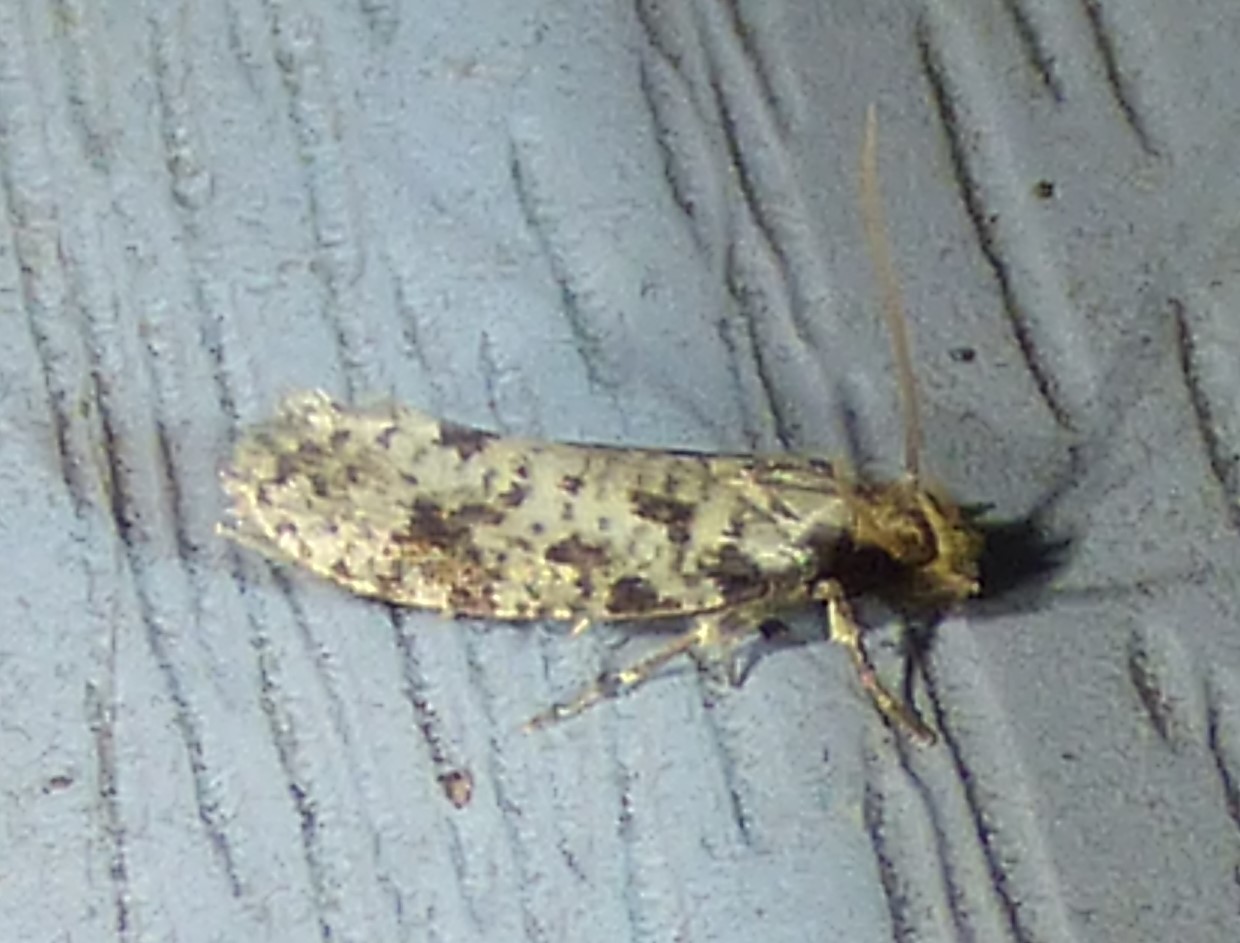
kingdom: Animalia
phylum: Arthropoda
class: Insecta
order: Lepidoptera
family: Tineidae
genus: Amydria
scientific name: Amydria effrentella
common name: Brown-blotched amydria moth
